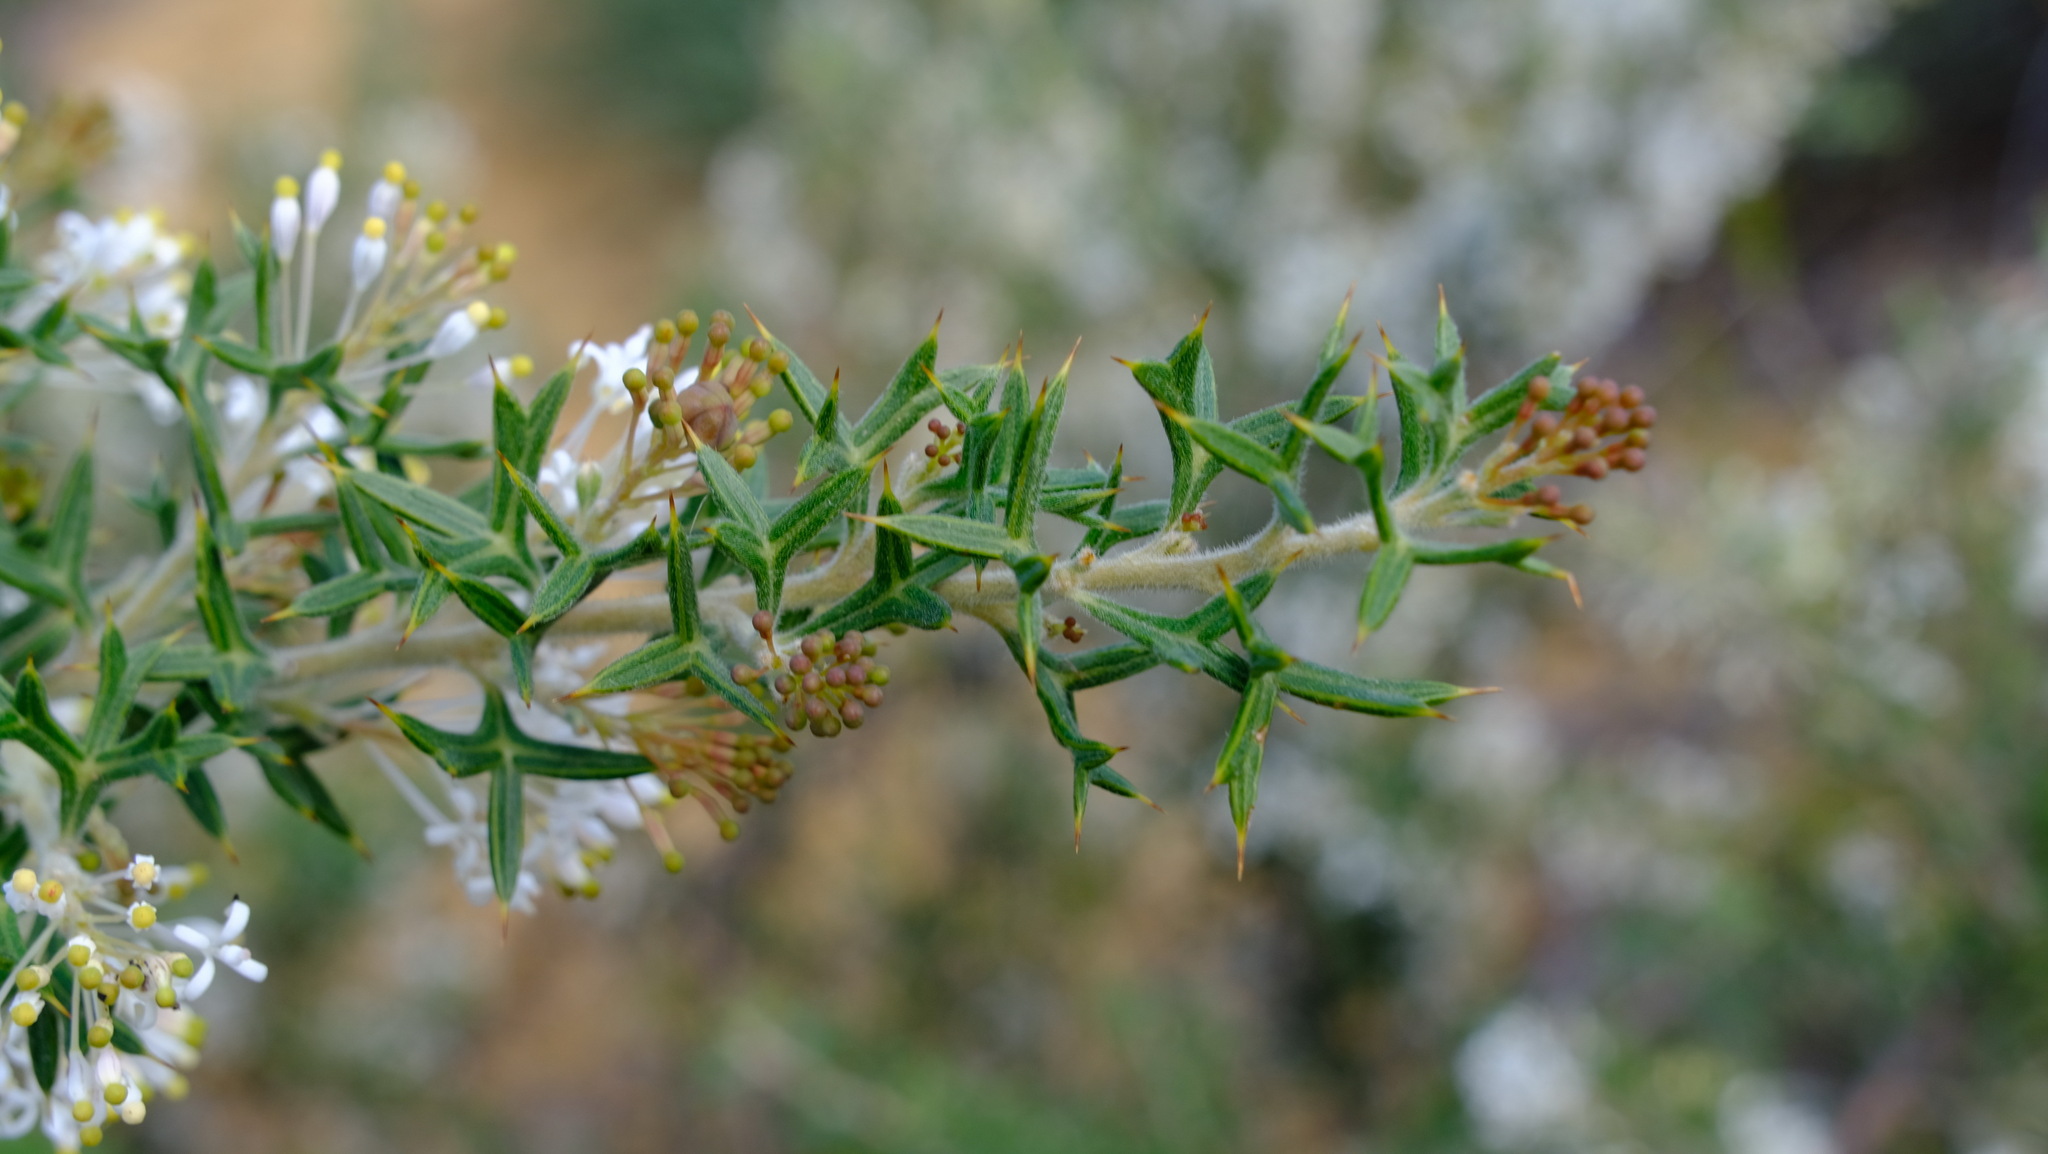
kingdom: Plantae
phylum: Tracheophyta
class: Magnoliopsida
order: Proteales
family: Proteaceae
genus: Grevillea
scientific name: Grevillea vestita
